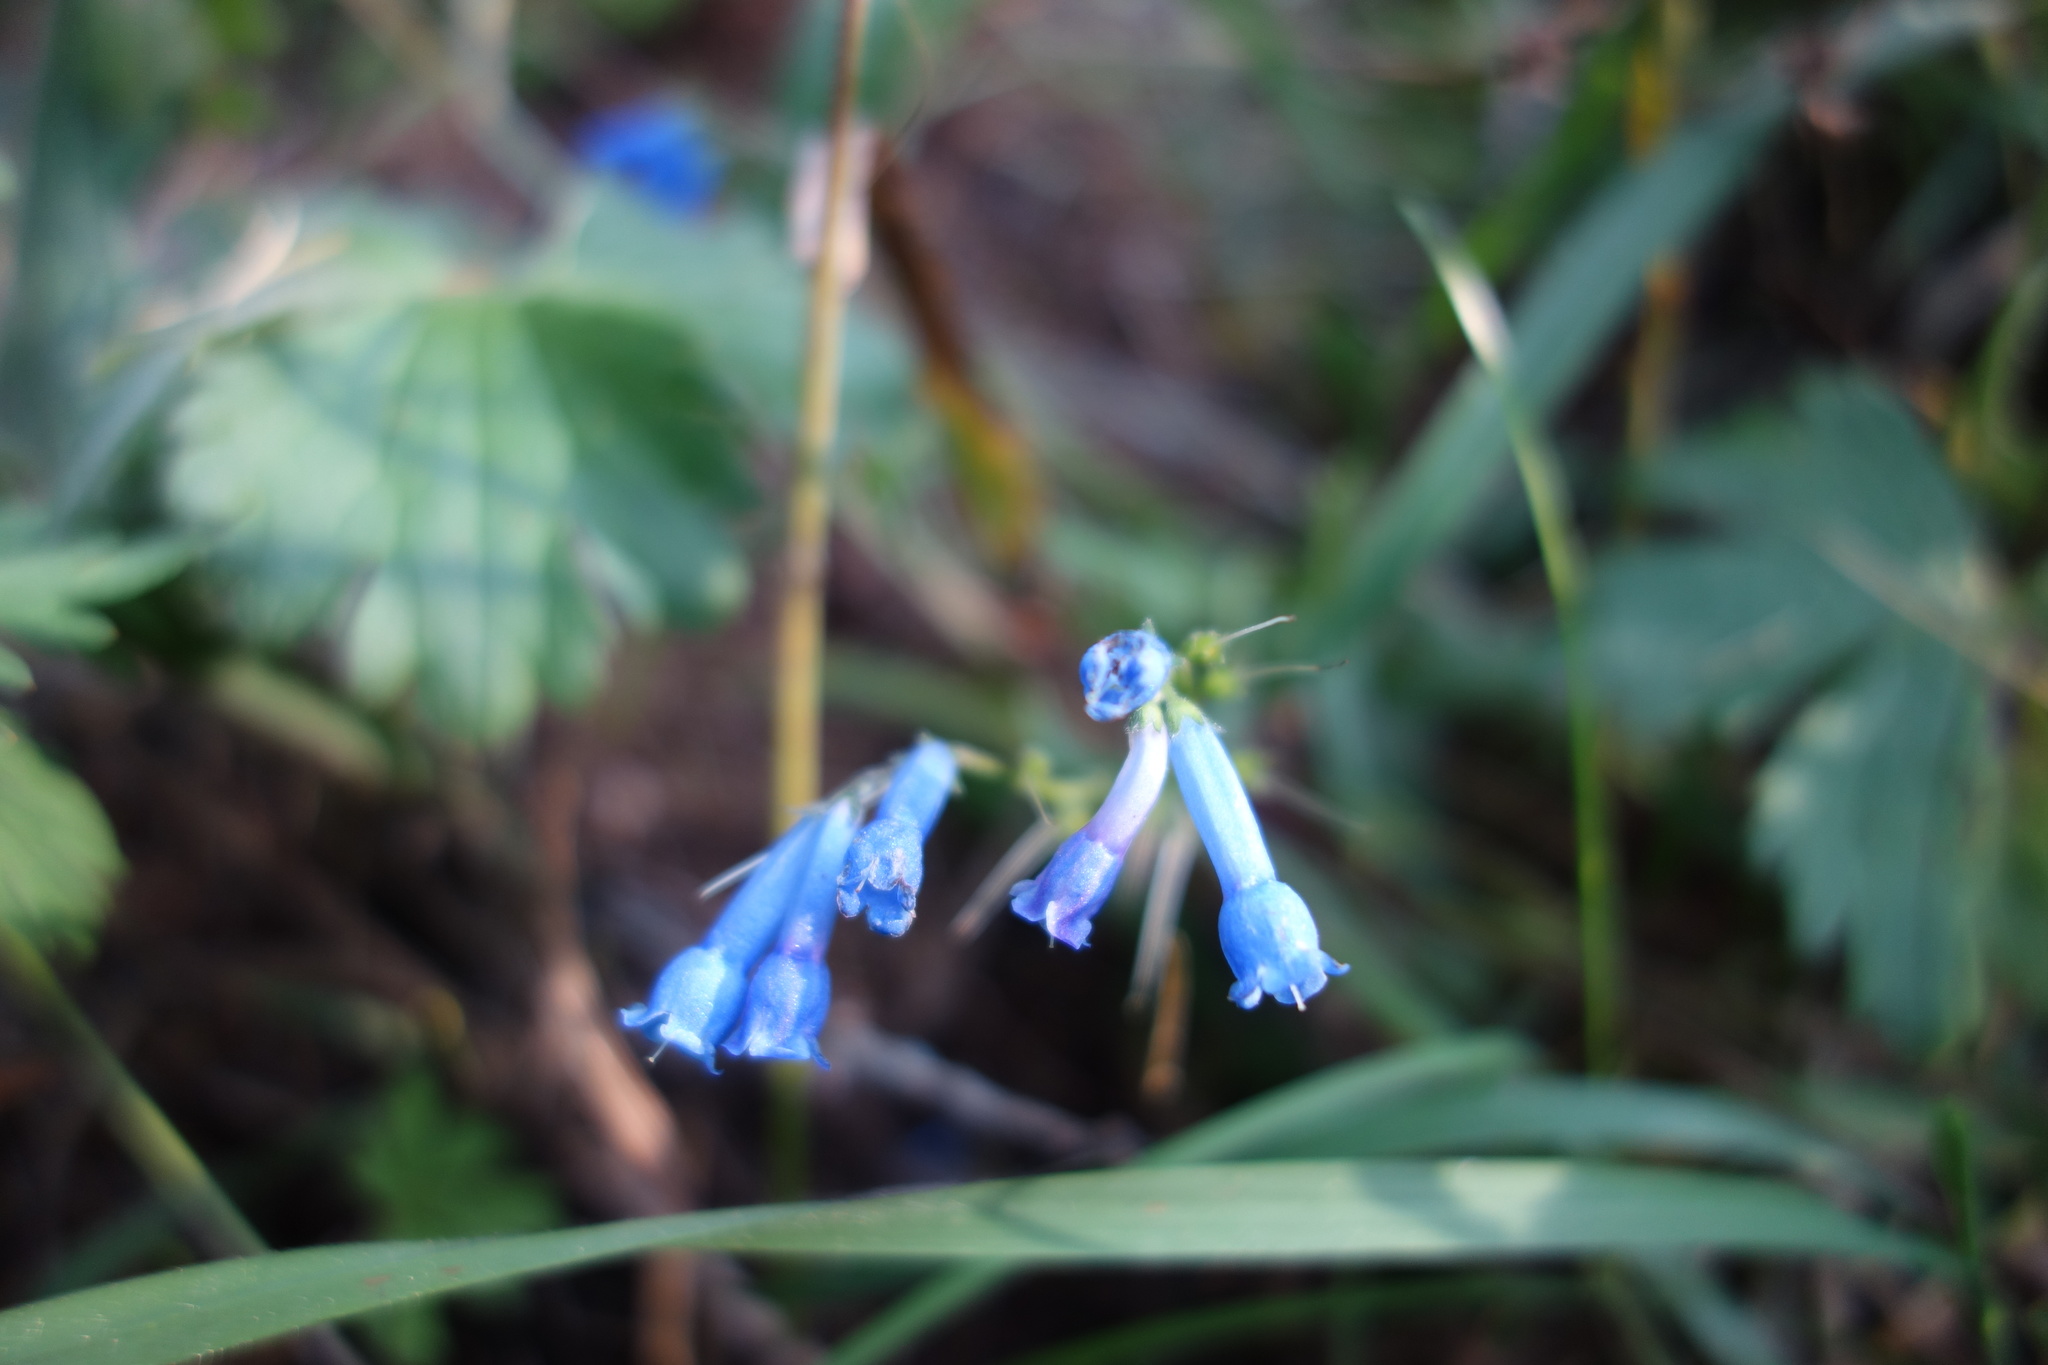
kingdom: Plantae
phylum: Tracheophyta
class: Magnoliopsida
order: Boraginales
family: Boraginaceae
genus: Mertensia
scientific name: Mertensia stylosa
